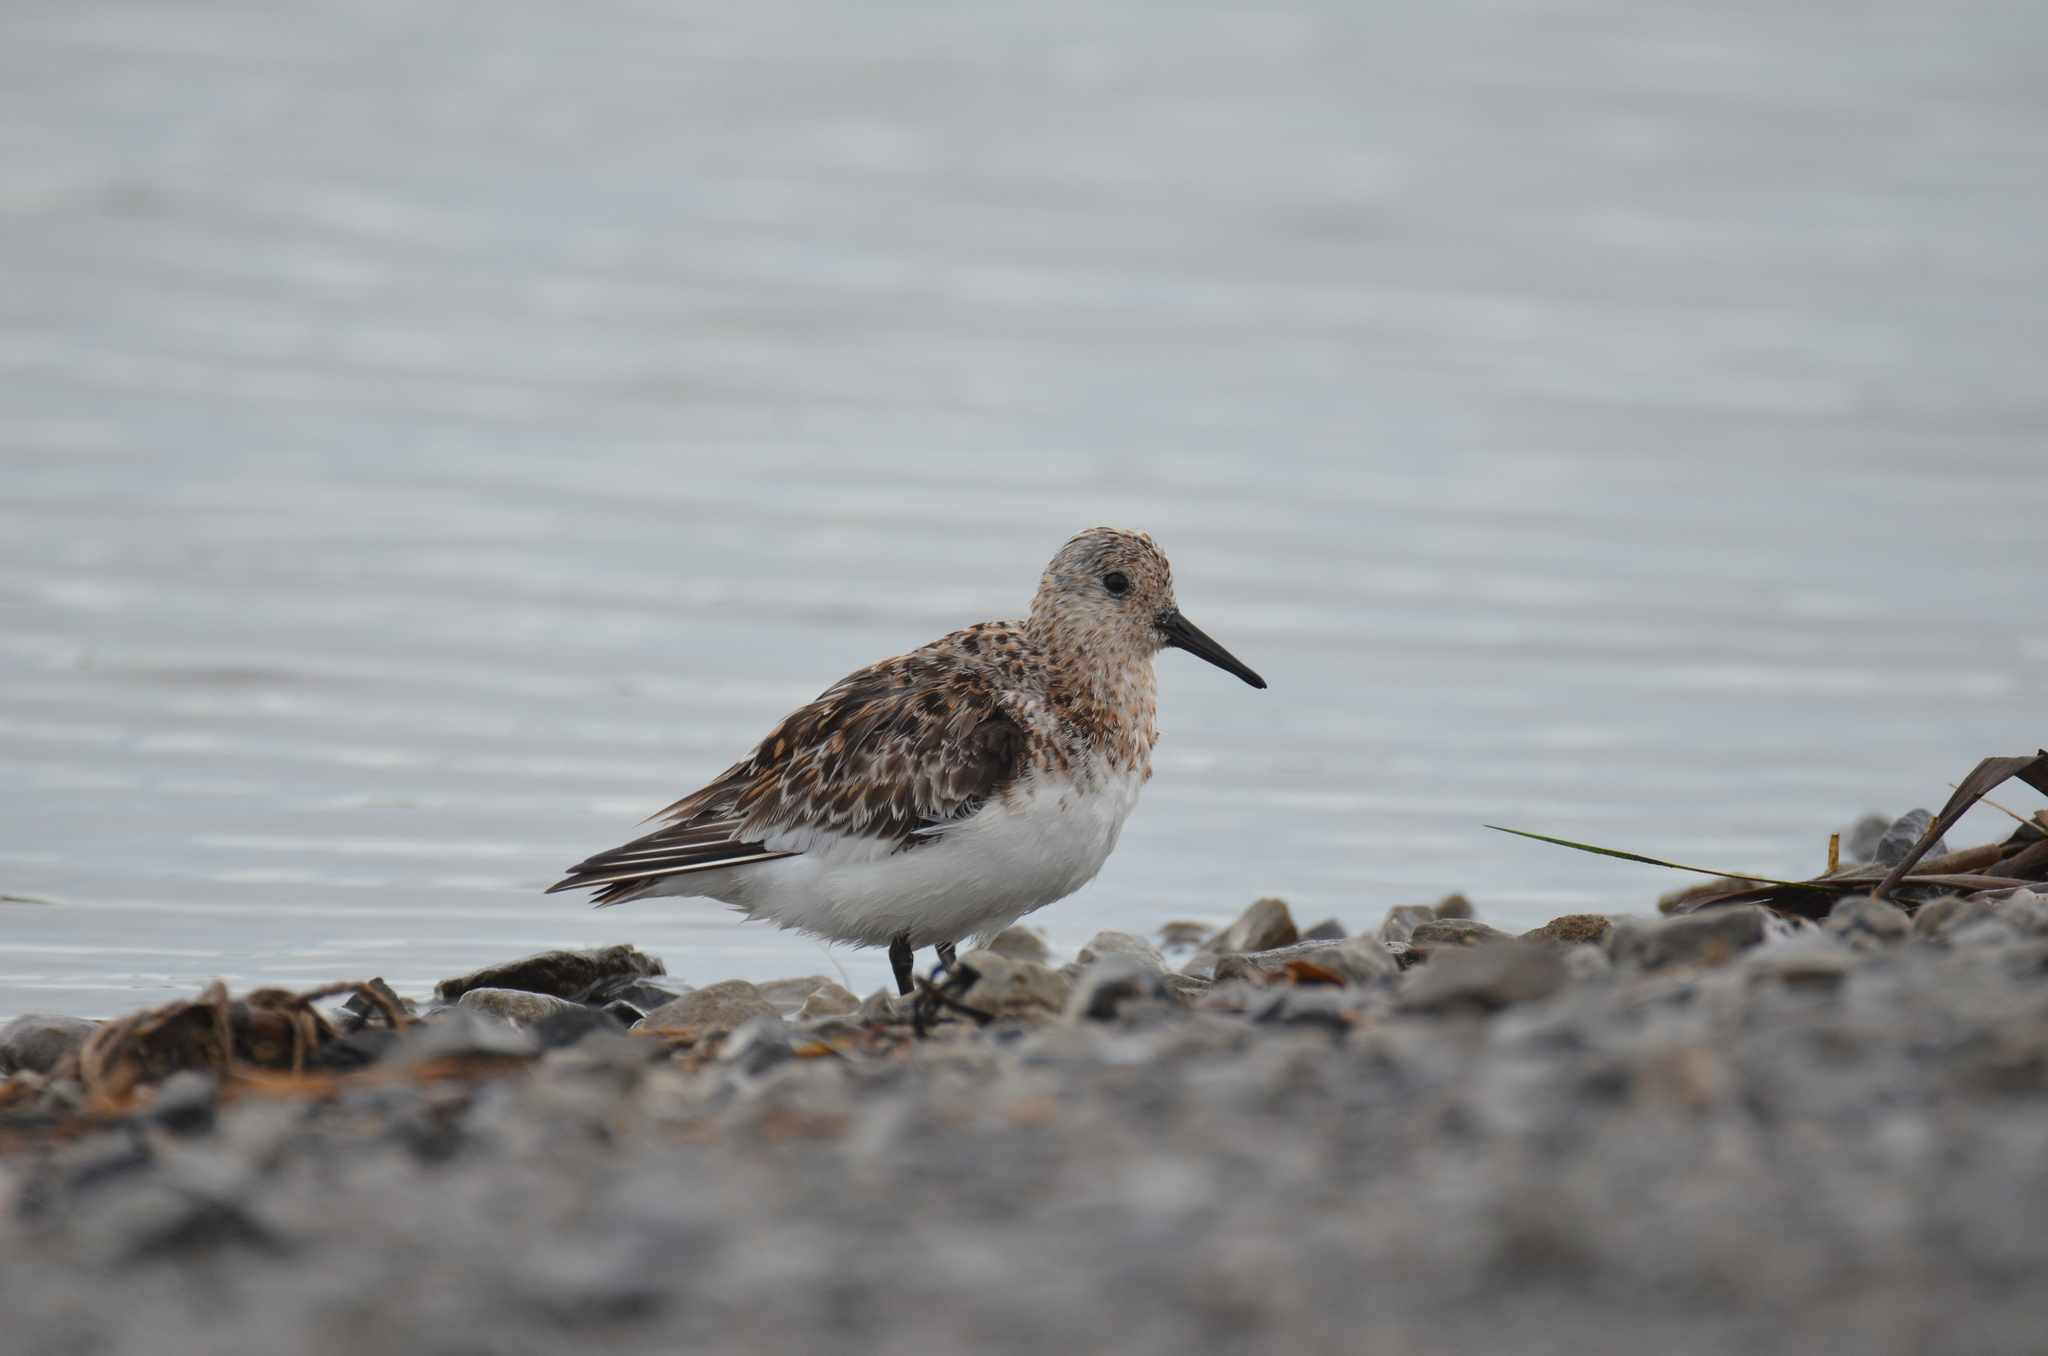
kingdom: Animalia
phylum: Chordata
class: Aves
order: Charadriiformes
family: Scolopacidae
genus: Calidris
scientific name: Calidris alba
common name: Sanderling
